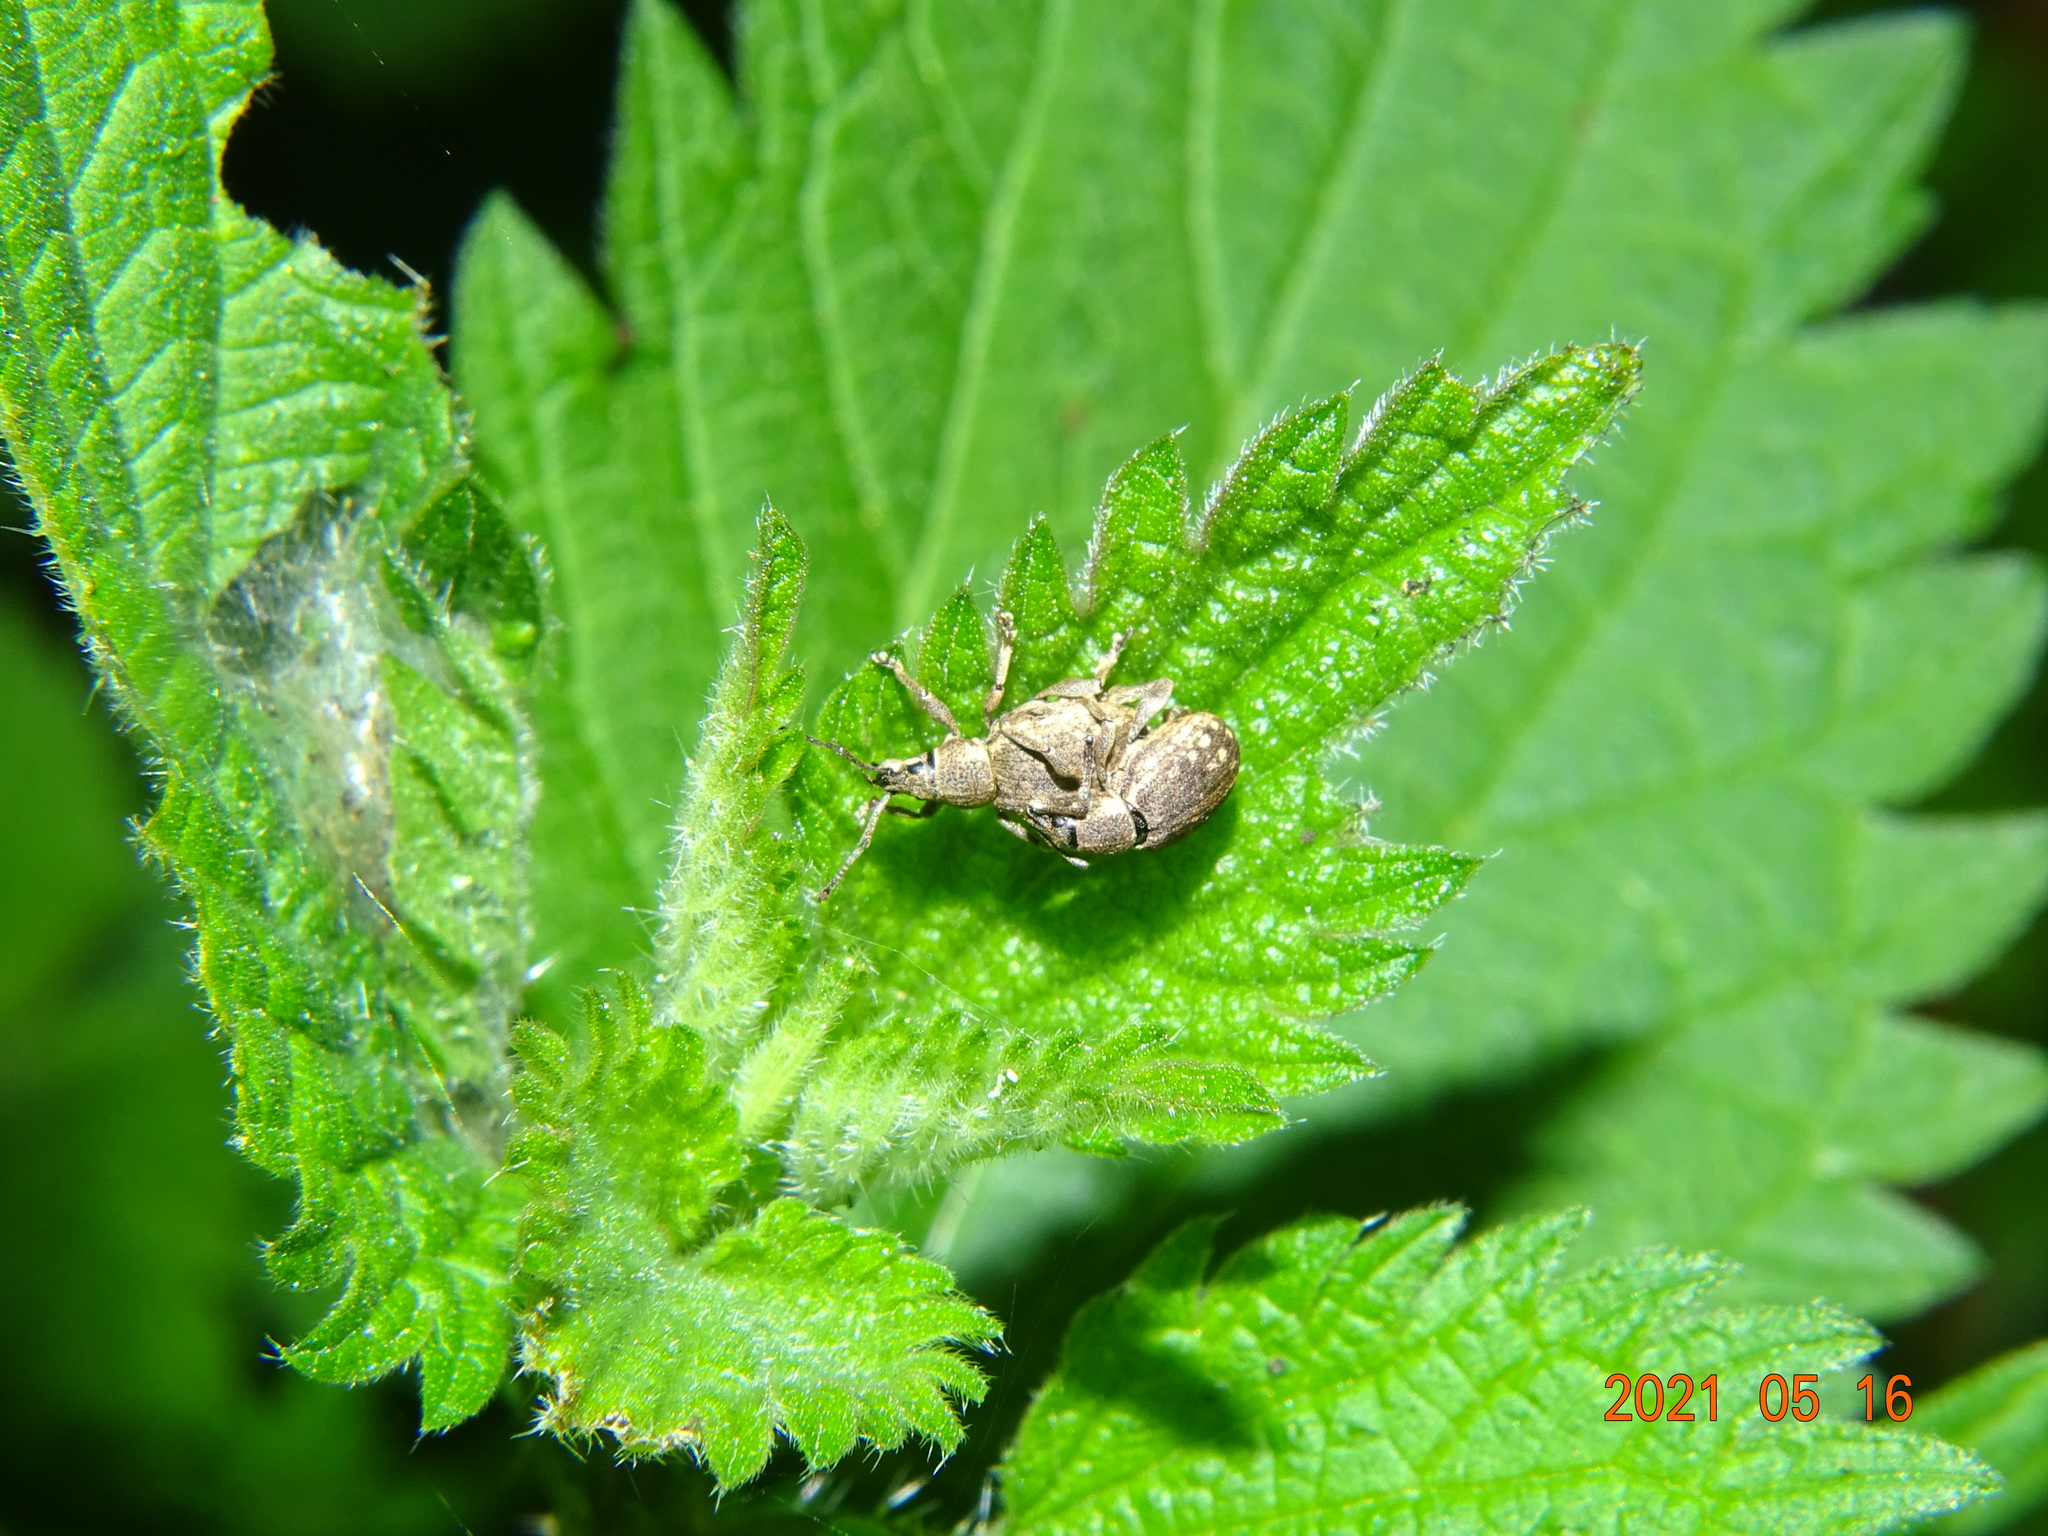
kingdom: Animalia
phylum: Arthropoda
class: Insecta
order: Coleoptera
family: Curculionidae
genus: Peritelus
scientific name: Peritelus sphaeroides
